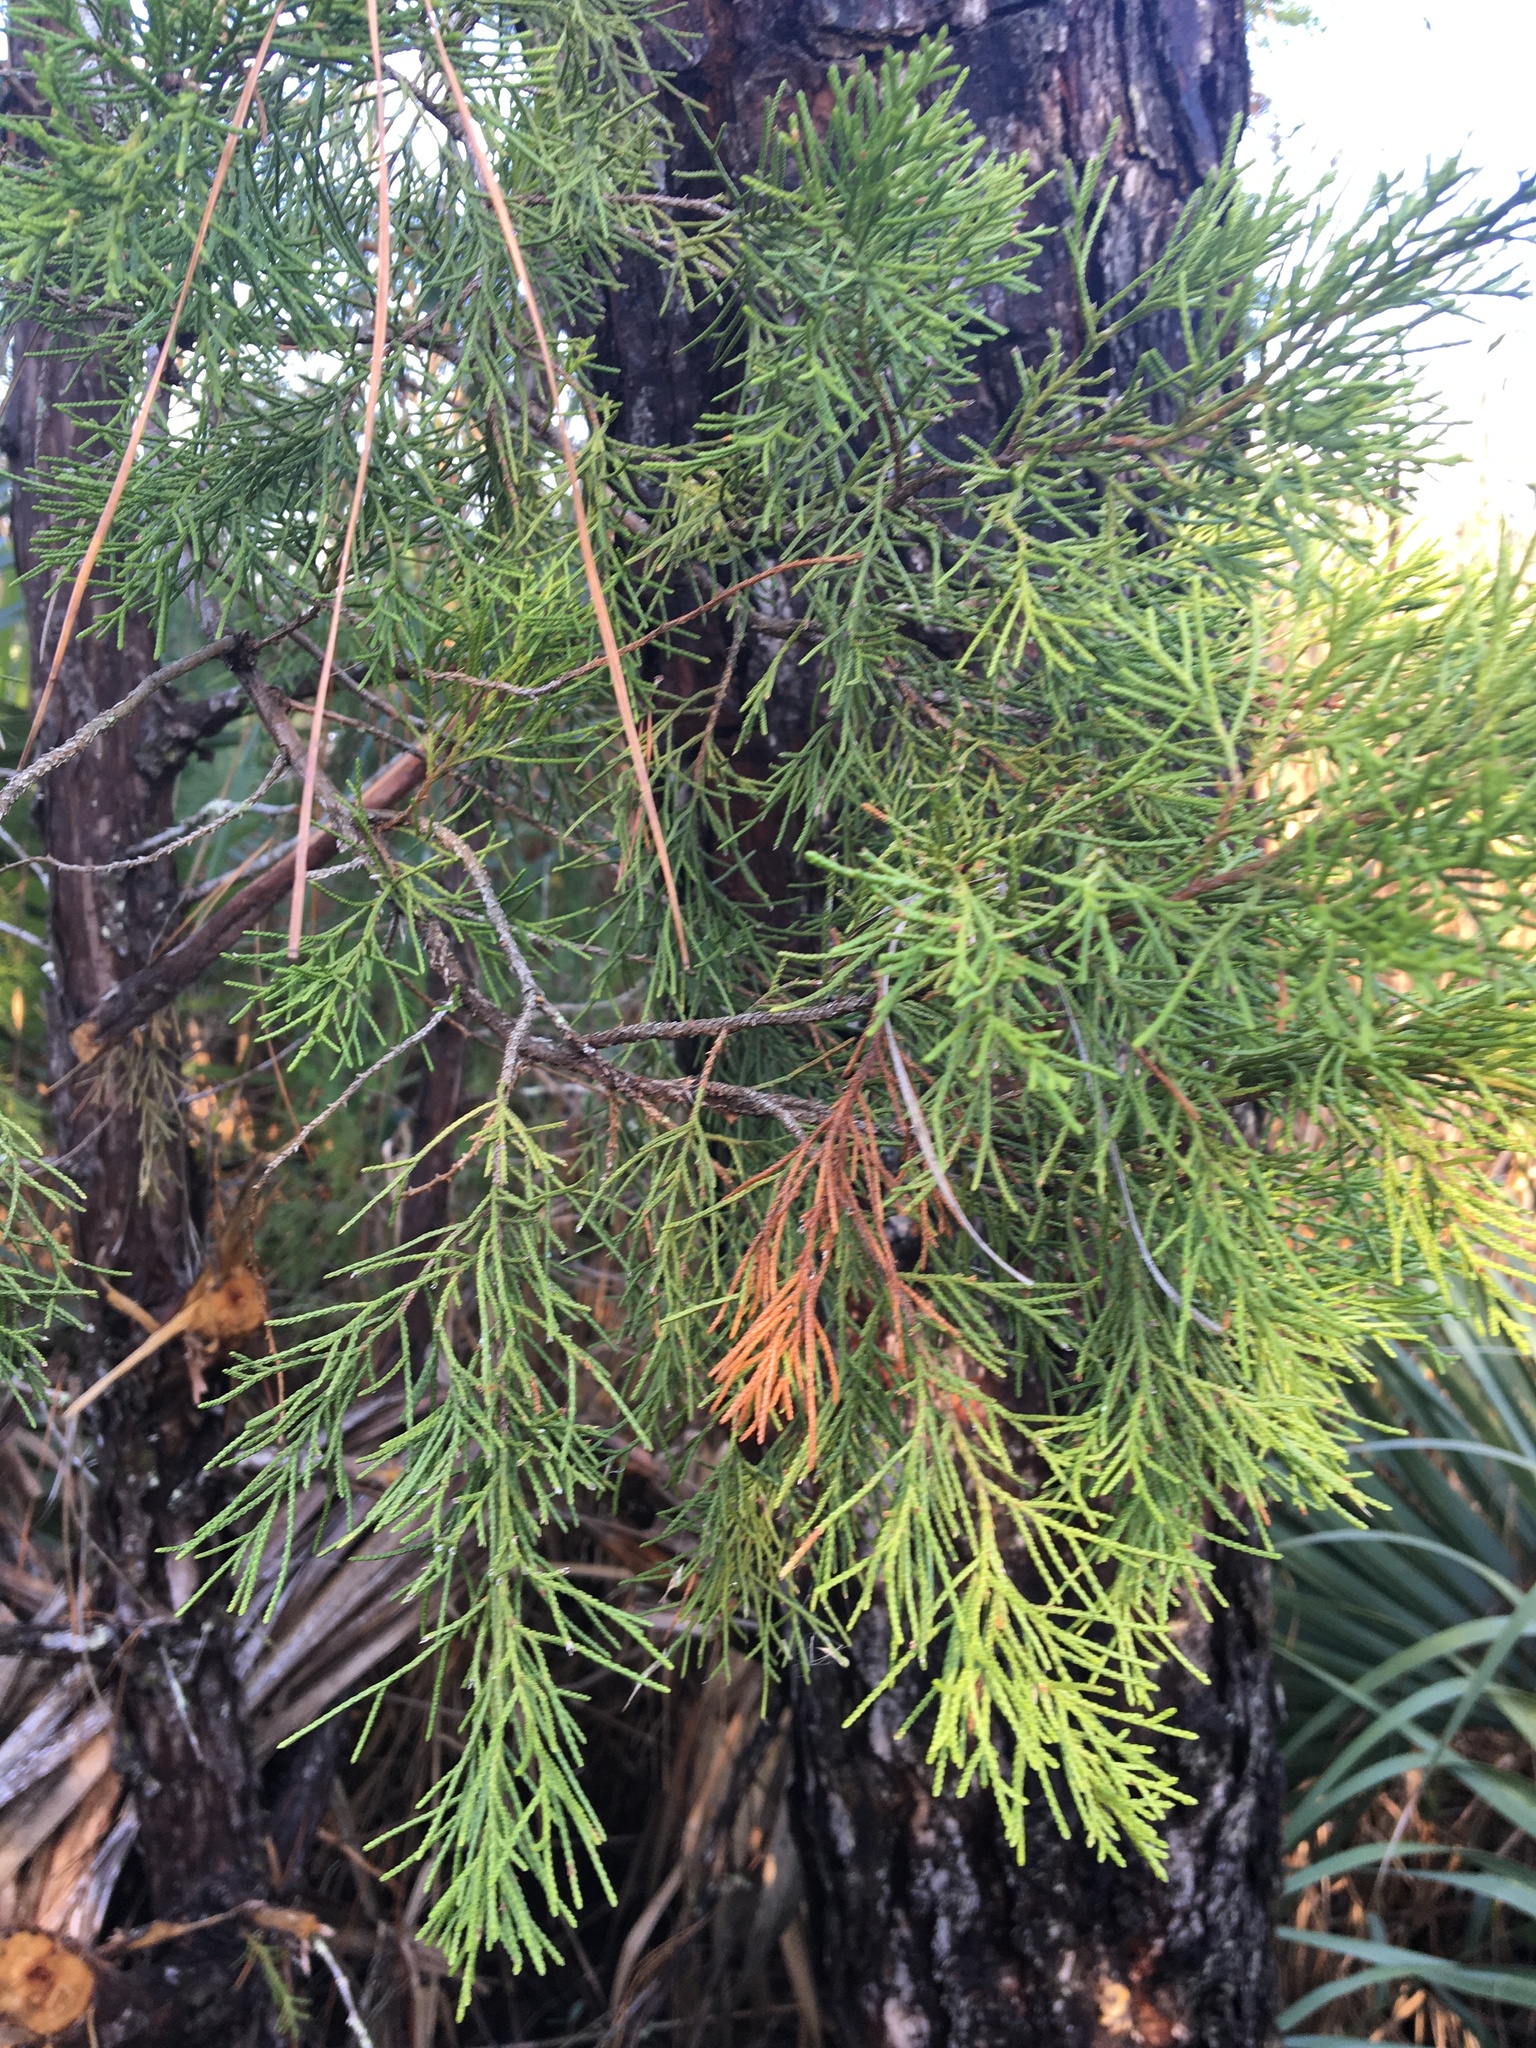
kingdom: Plantae
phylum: Tracheophyta
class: Pinopsida
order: Pinales
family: Cupressaceae
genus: Juniperus
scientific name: Juniperus virginiana
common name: Red juniper
